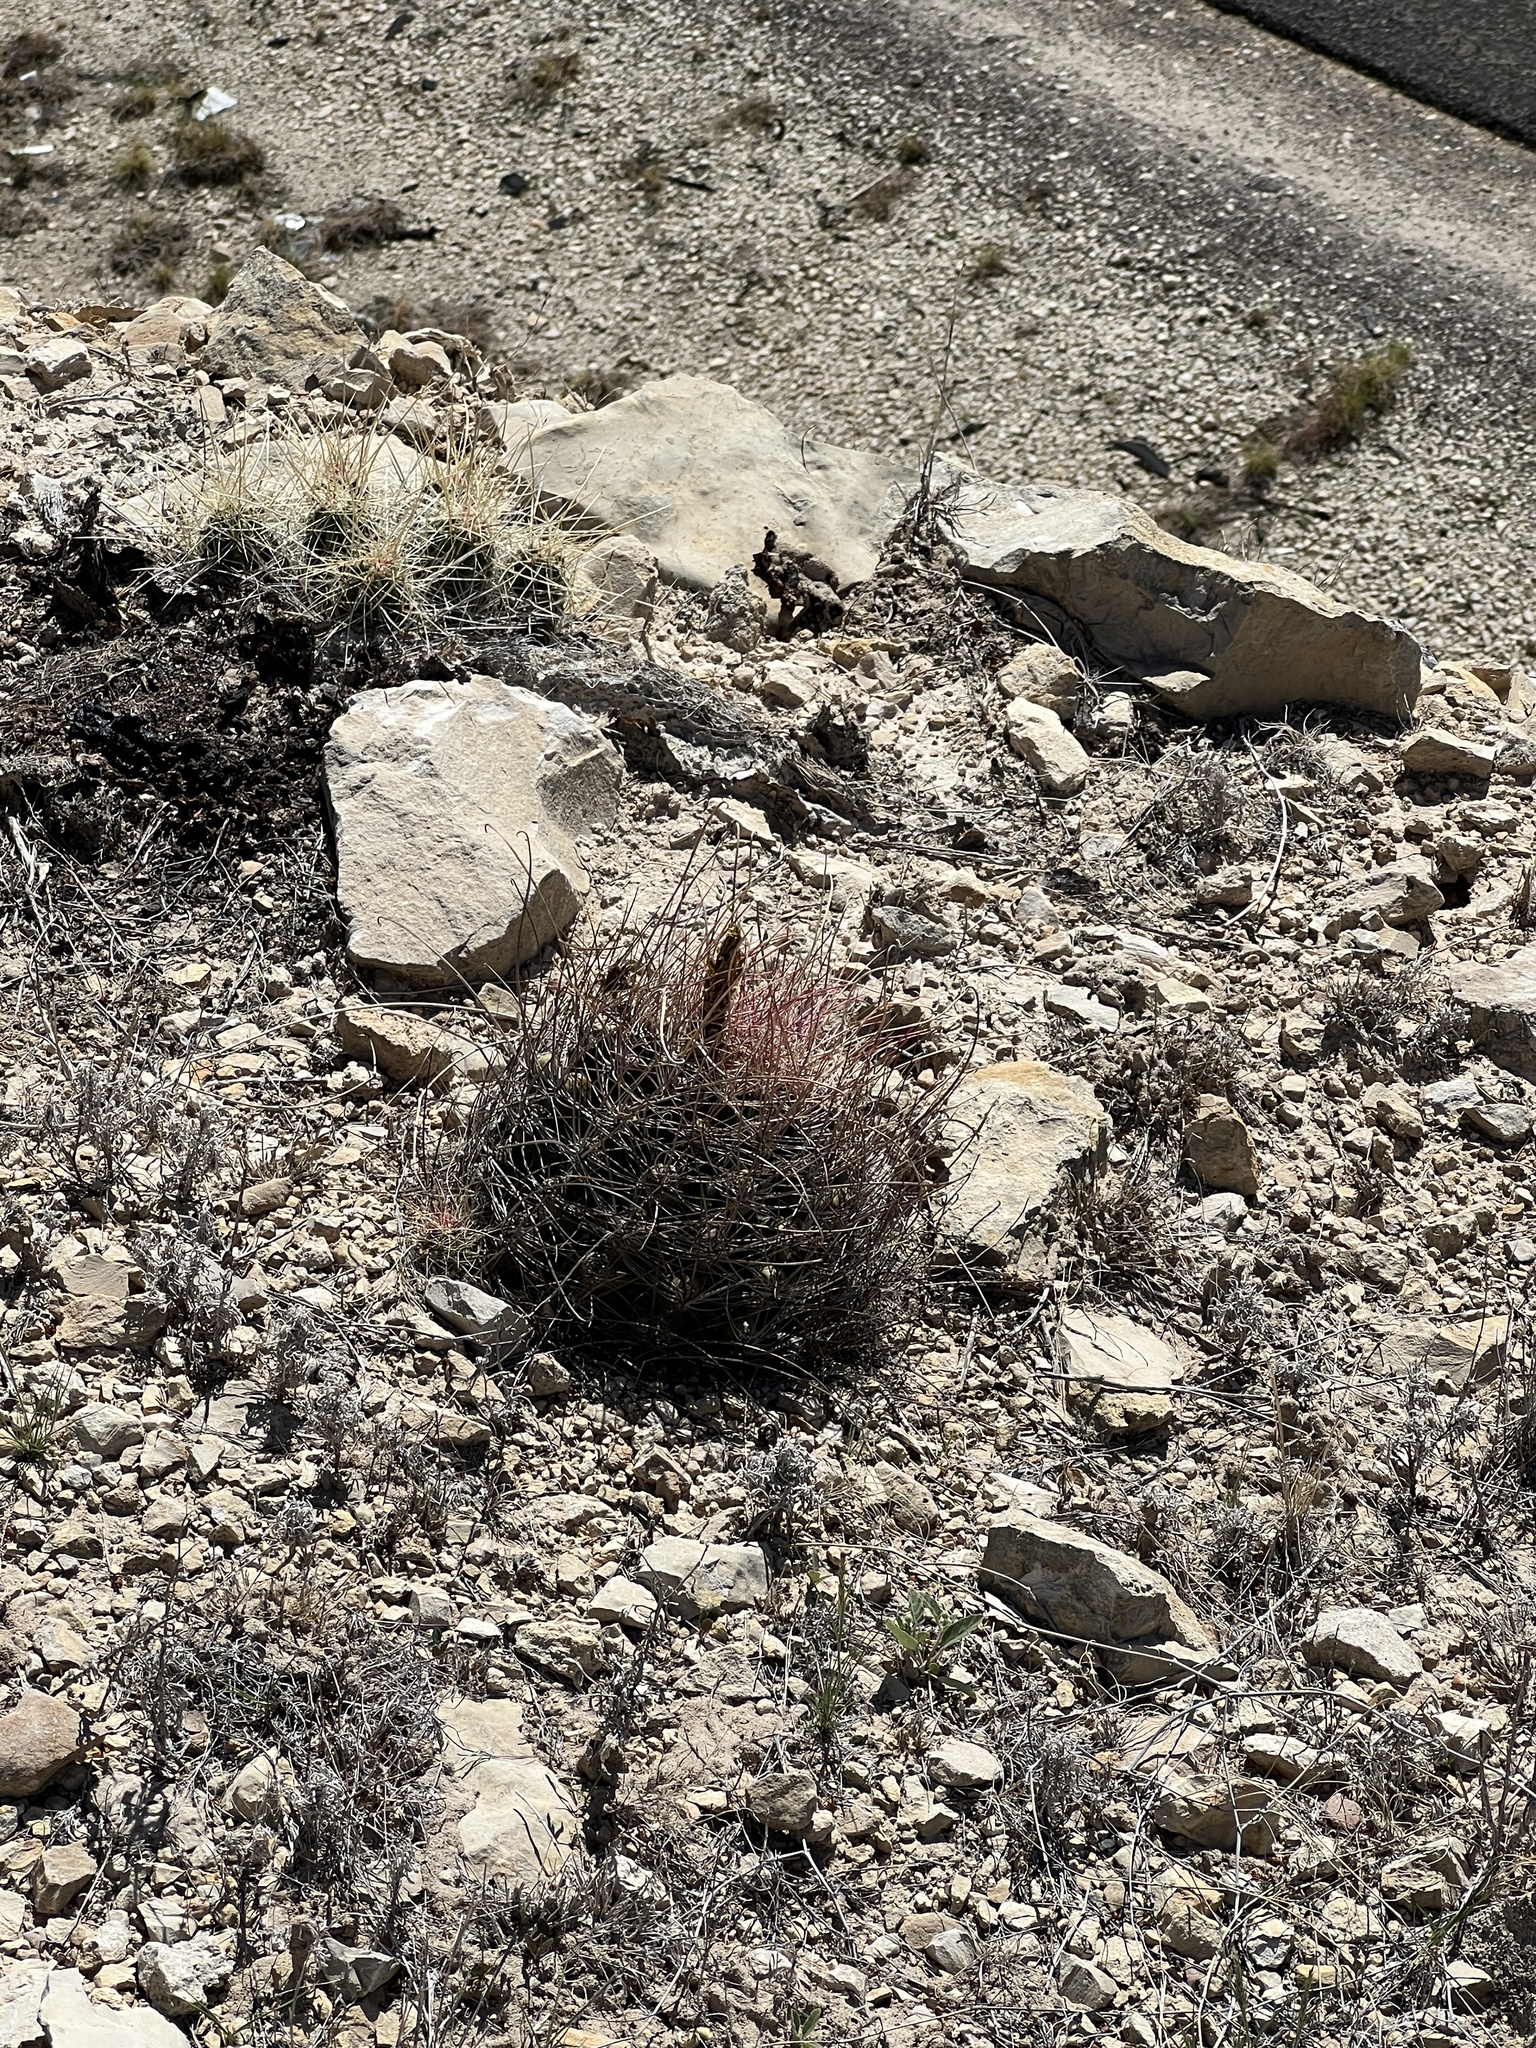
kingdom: Plantae
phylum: Tracheophyta
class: Magnoliopsida
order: Caryophyllales
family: Cactaceae
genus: Bisnaga
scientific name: Bisnaga hamatacantha
